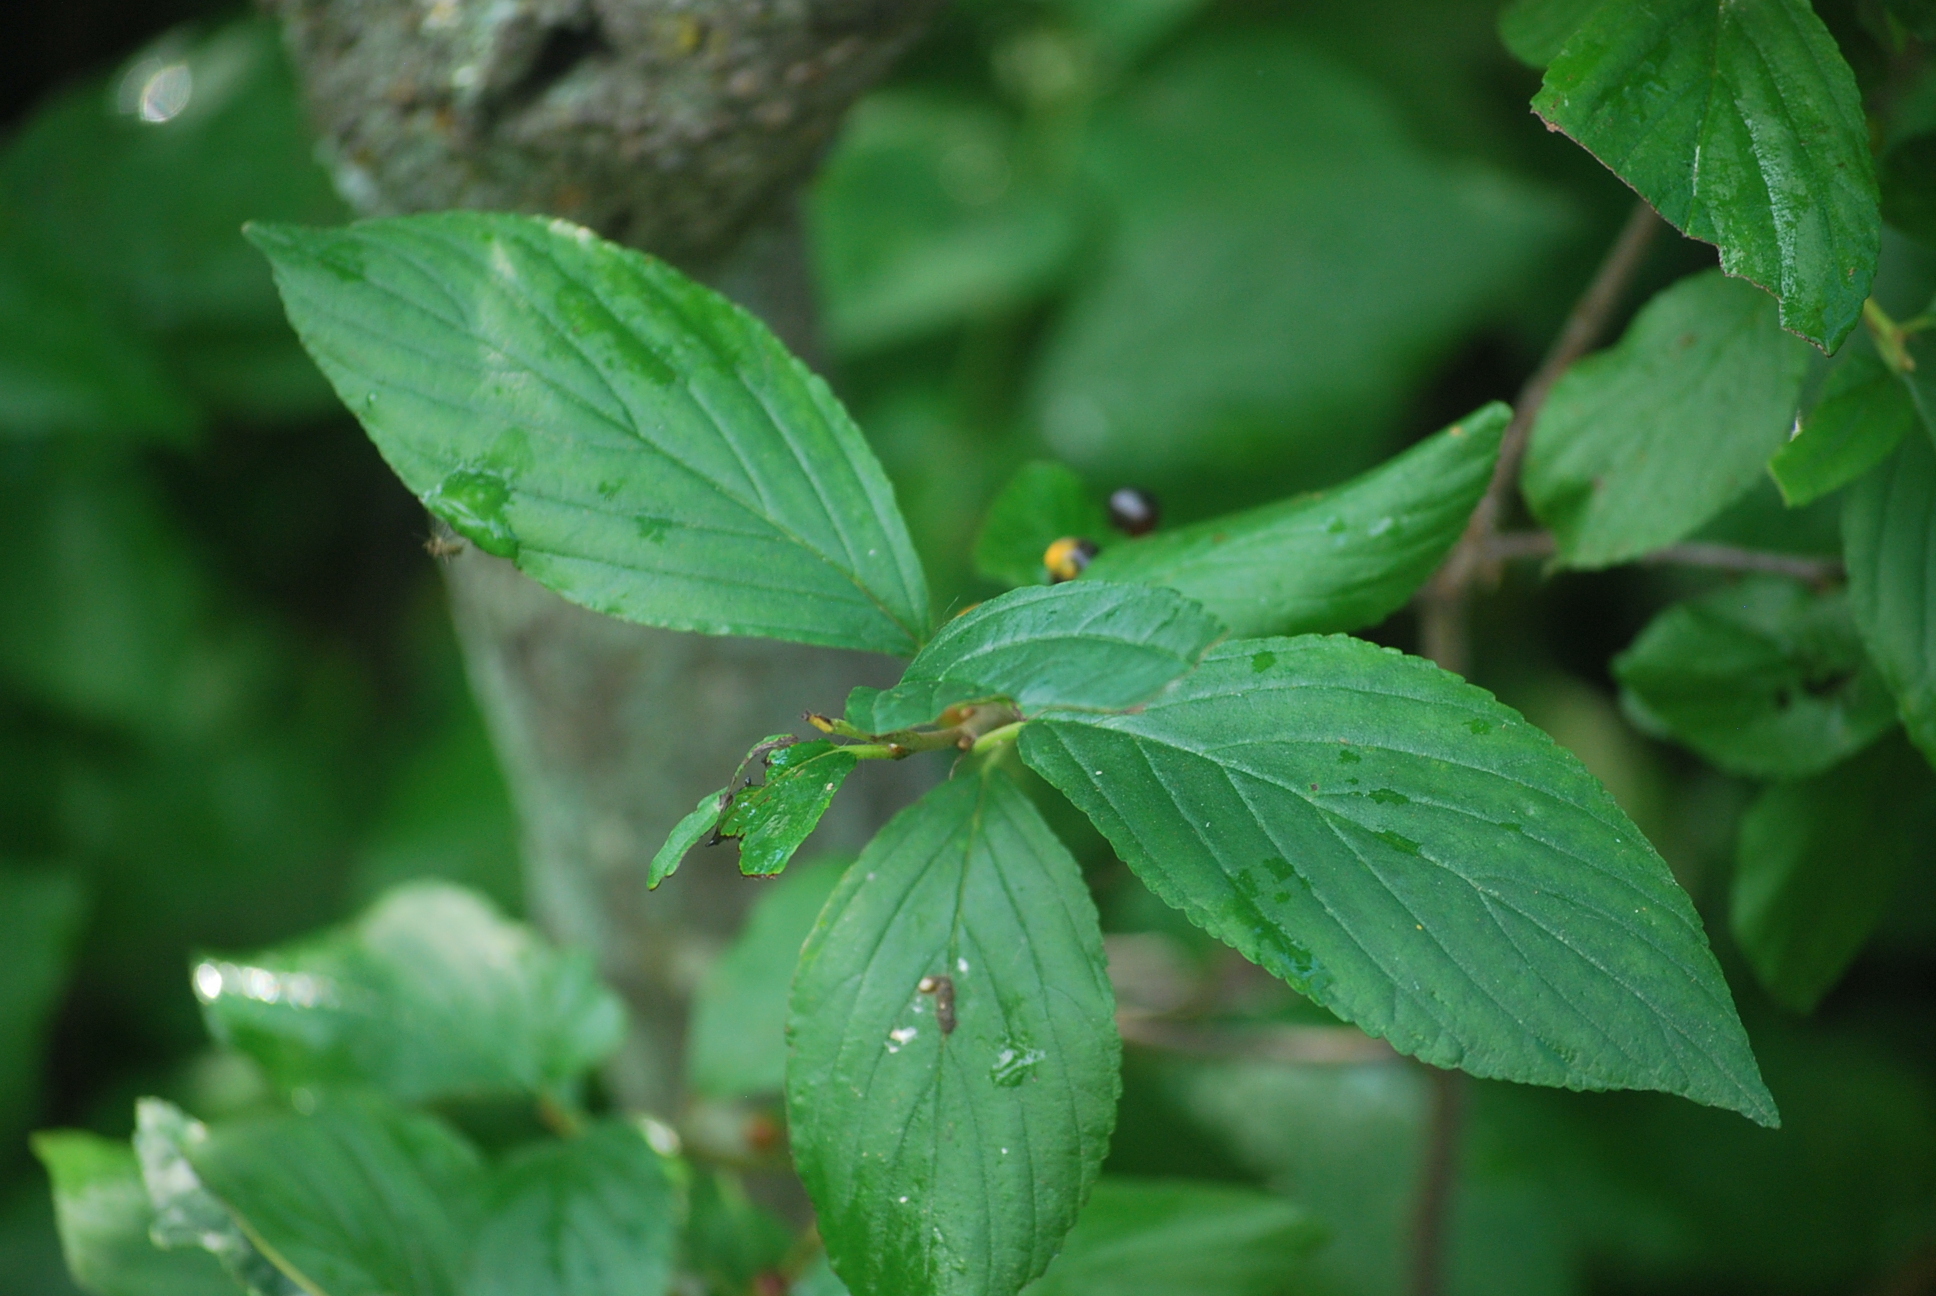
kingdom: Plantae
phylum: Tracheophyta
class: Magnoliopsida
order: Rosales
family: Rhamnaceae
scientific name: Rhamnaceae
